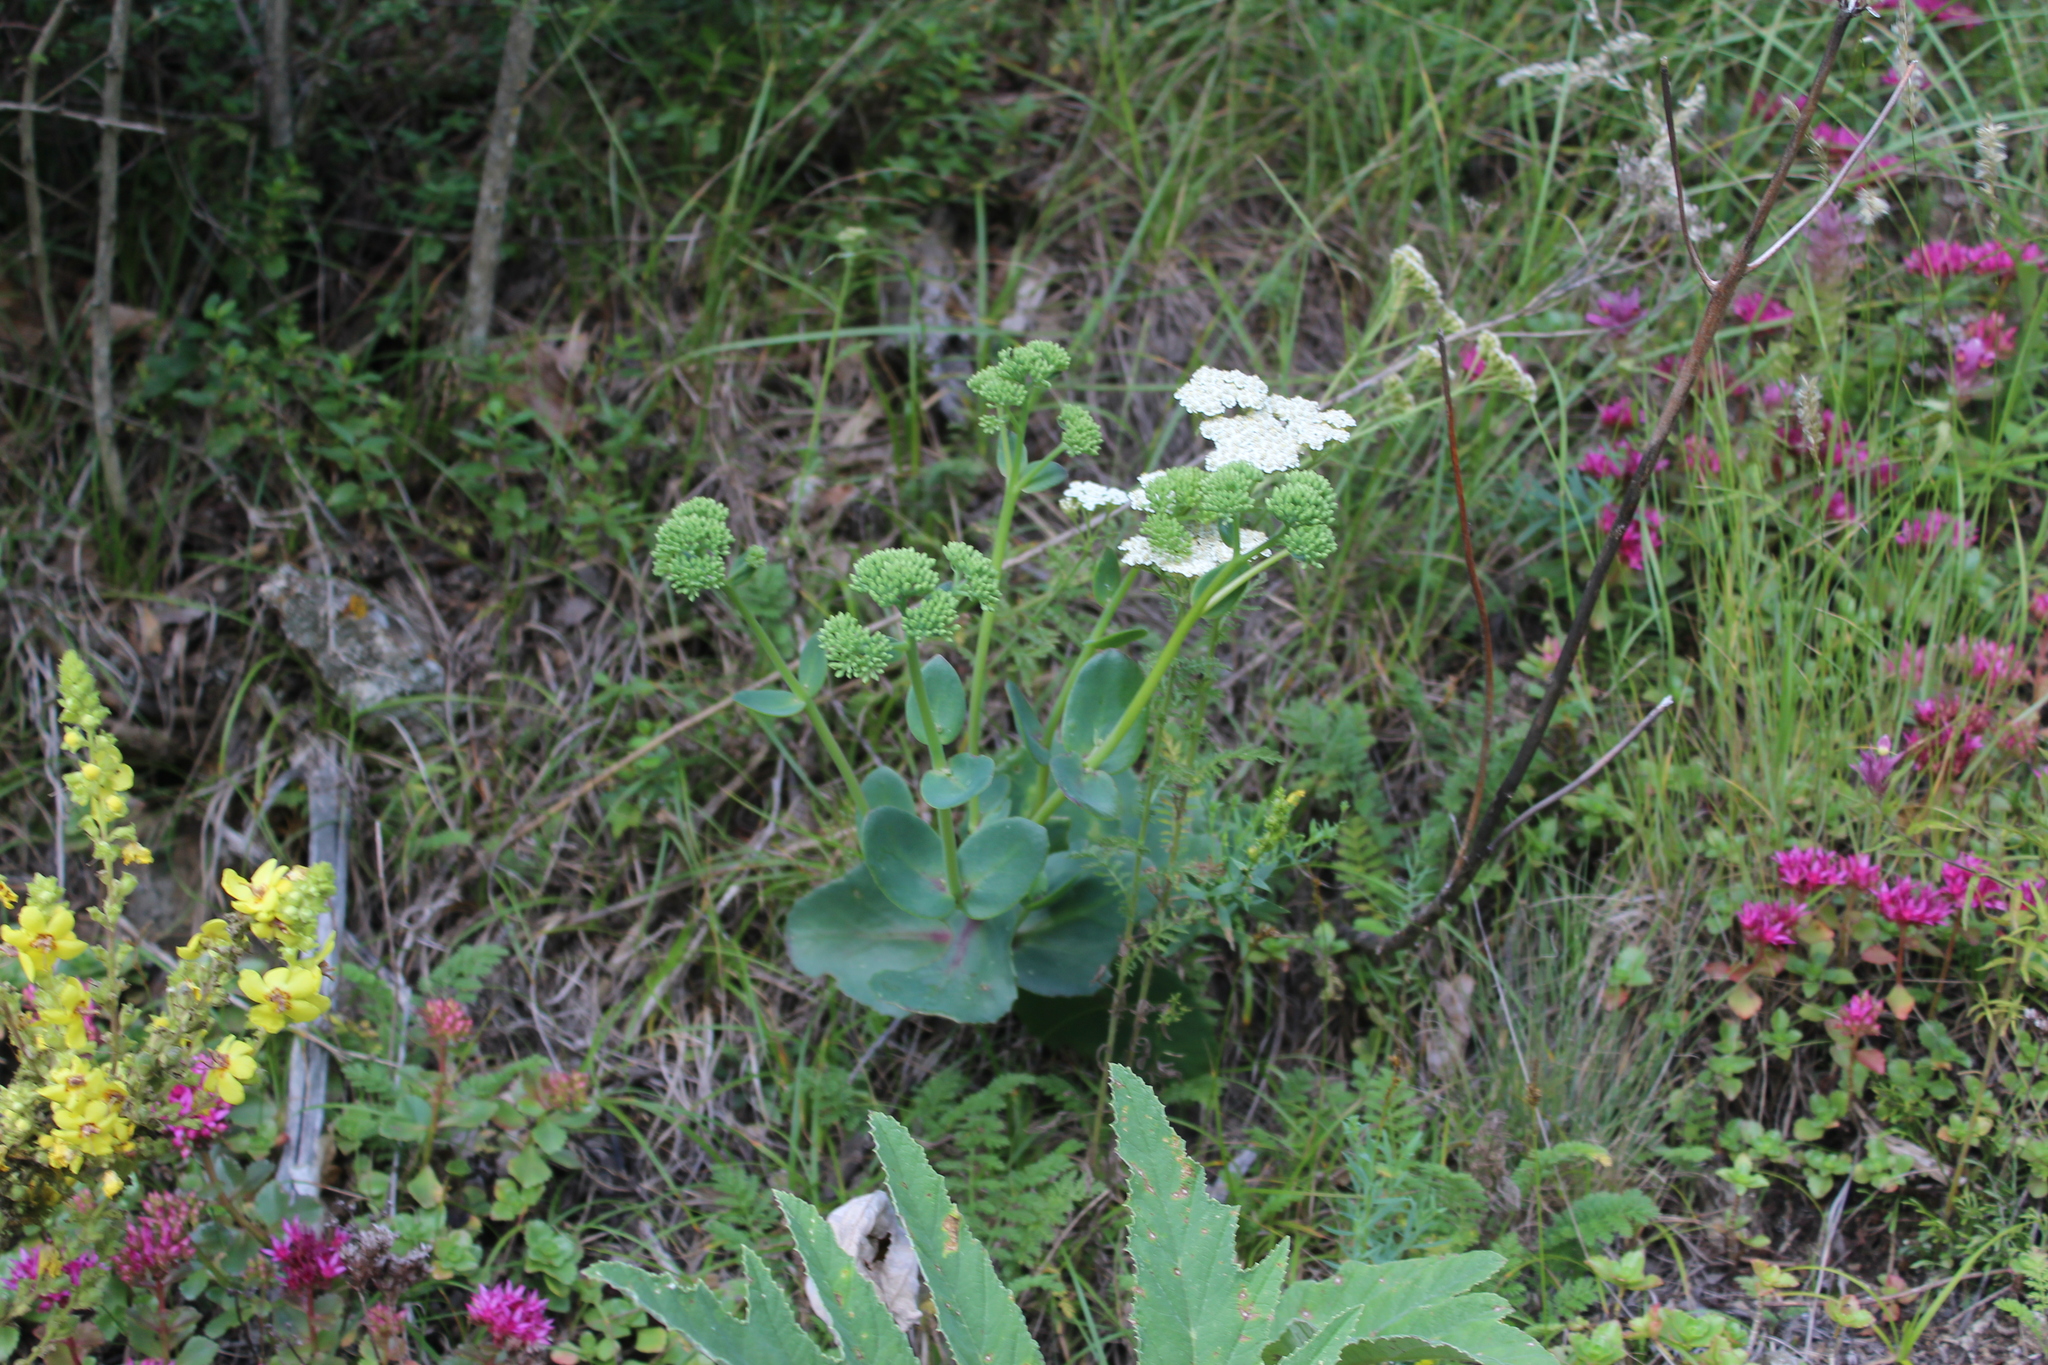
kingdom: Plantae
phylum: Tracheophyta
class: Magnoliopsida
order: Saxifragales
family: Crassulaceae
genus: Hylotelephium
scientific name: Hylotelephium maximum
